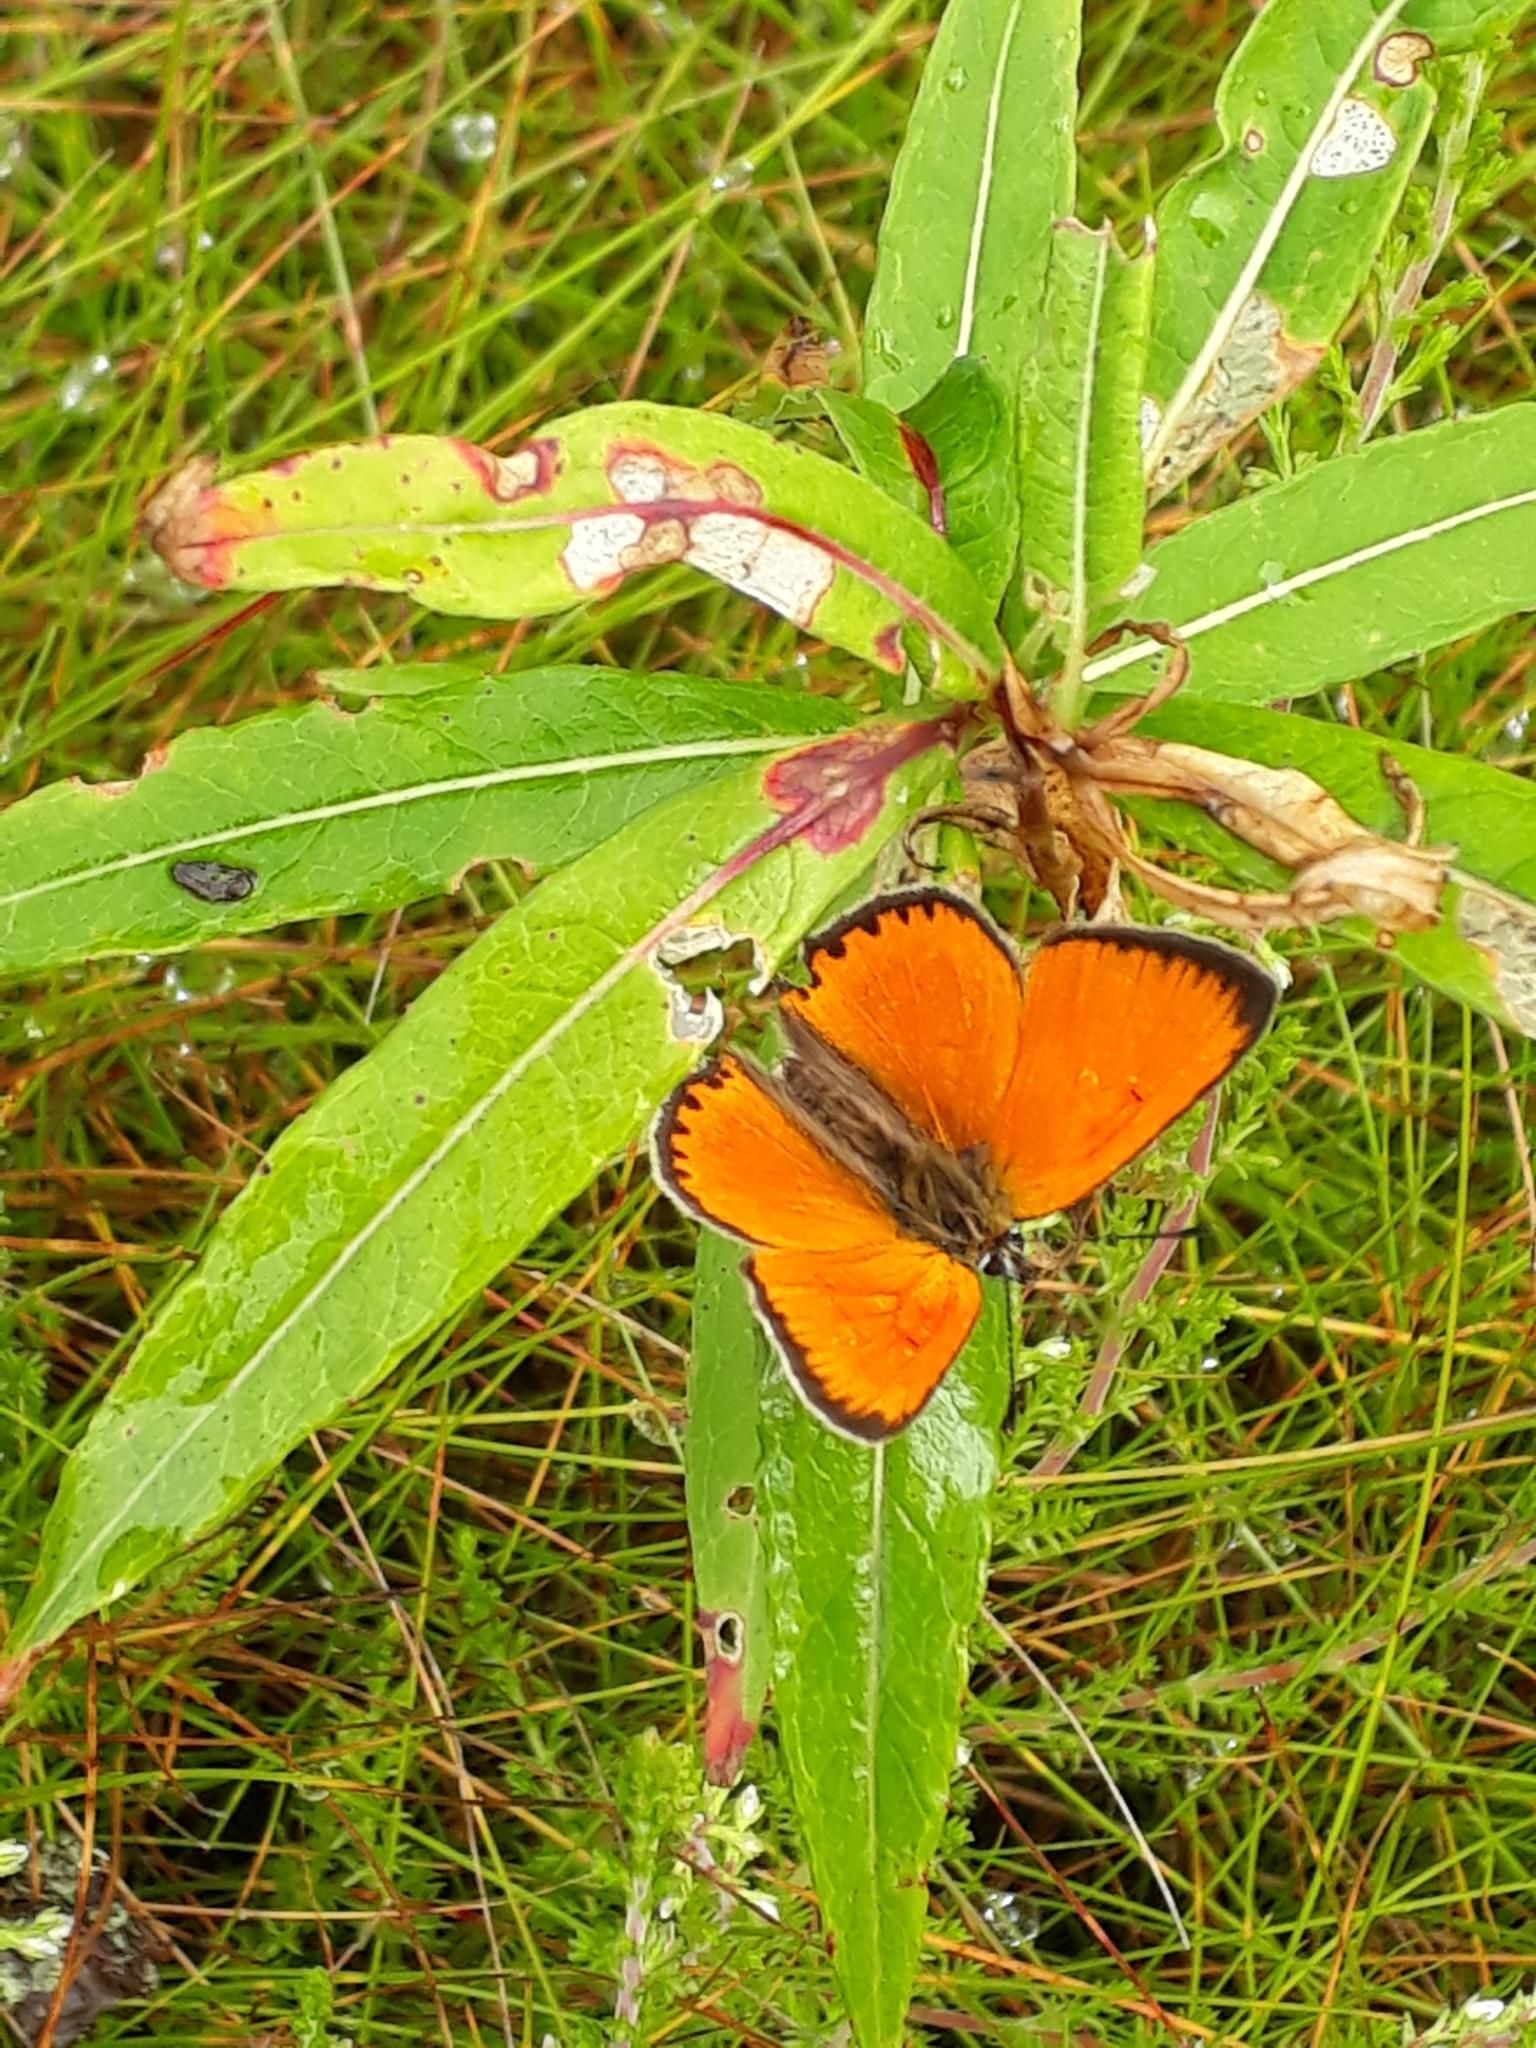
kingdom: Animalia
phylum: Arthropoda
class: Insecta
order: Lepidoptera
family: Lycaenidae
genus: Lycaena
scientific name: Lycaena virgaureae
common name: Scarce copper
